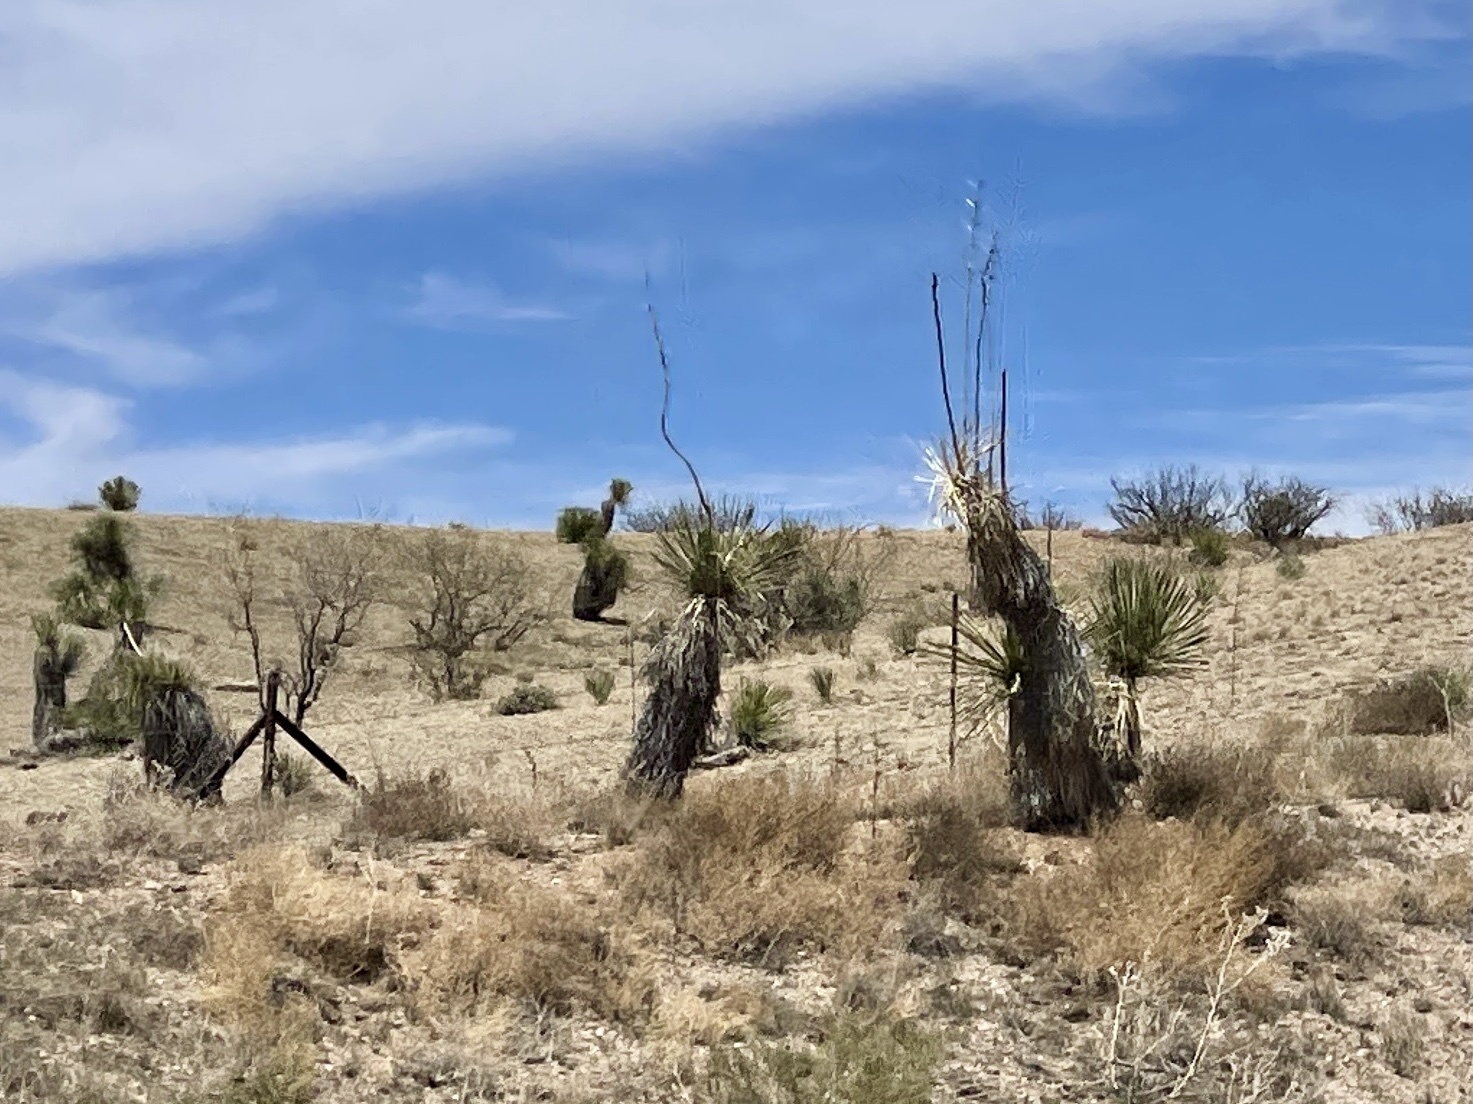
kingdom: Plantae
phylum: Tracheophyta
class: Liliopsida
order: Asparagales
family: Asparagaceae
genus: Yucca
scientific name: Yucca elata
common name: Palmella
